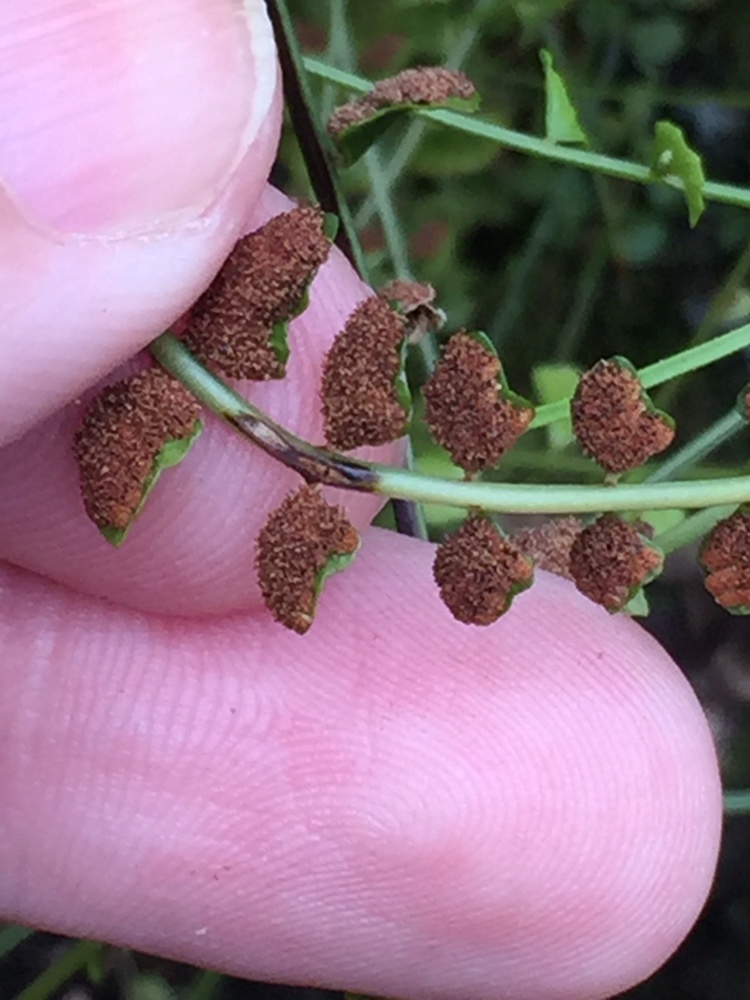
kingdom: Plantae
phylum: Tracheophyta
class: Polypodiopsida
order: Polypodiales
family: Aspleniaceae
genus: Asplenium
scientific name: Asplenium flabellifolium
